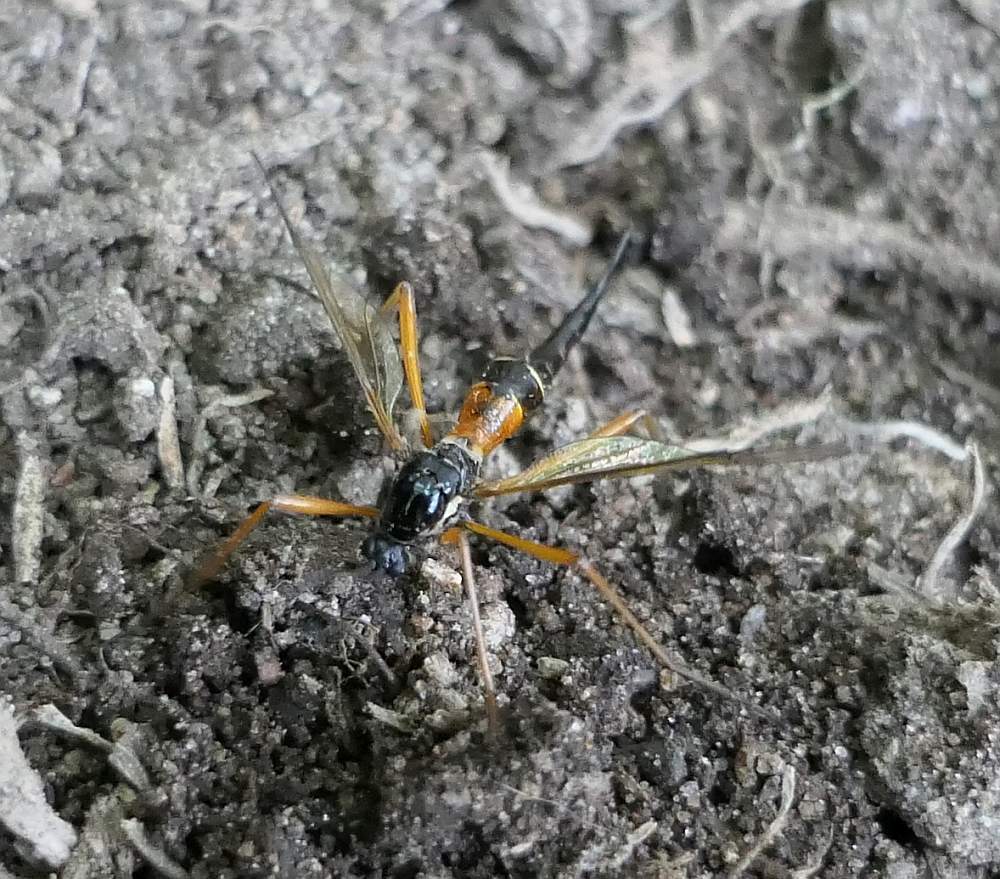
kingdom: Animalia
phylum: Arthropoda
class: Insecta
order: Diptera
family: Tipulidae
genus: Tanyptera
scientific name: Tanyptera dorsalis
